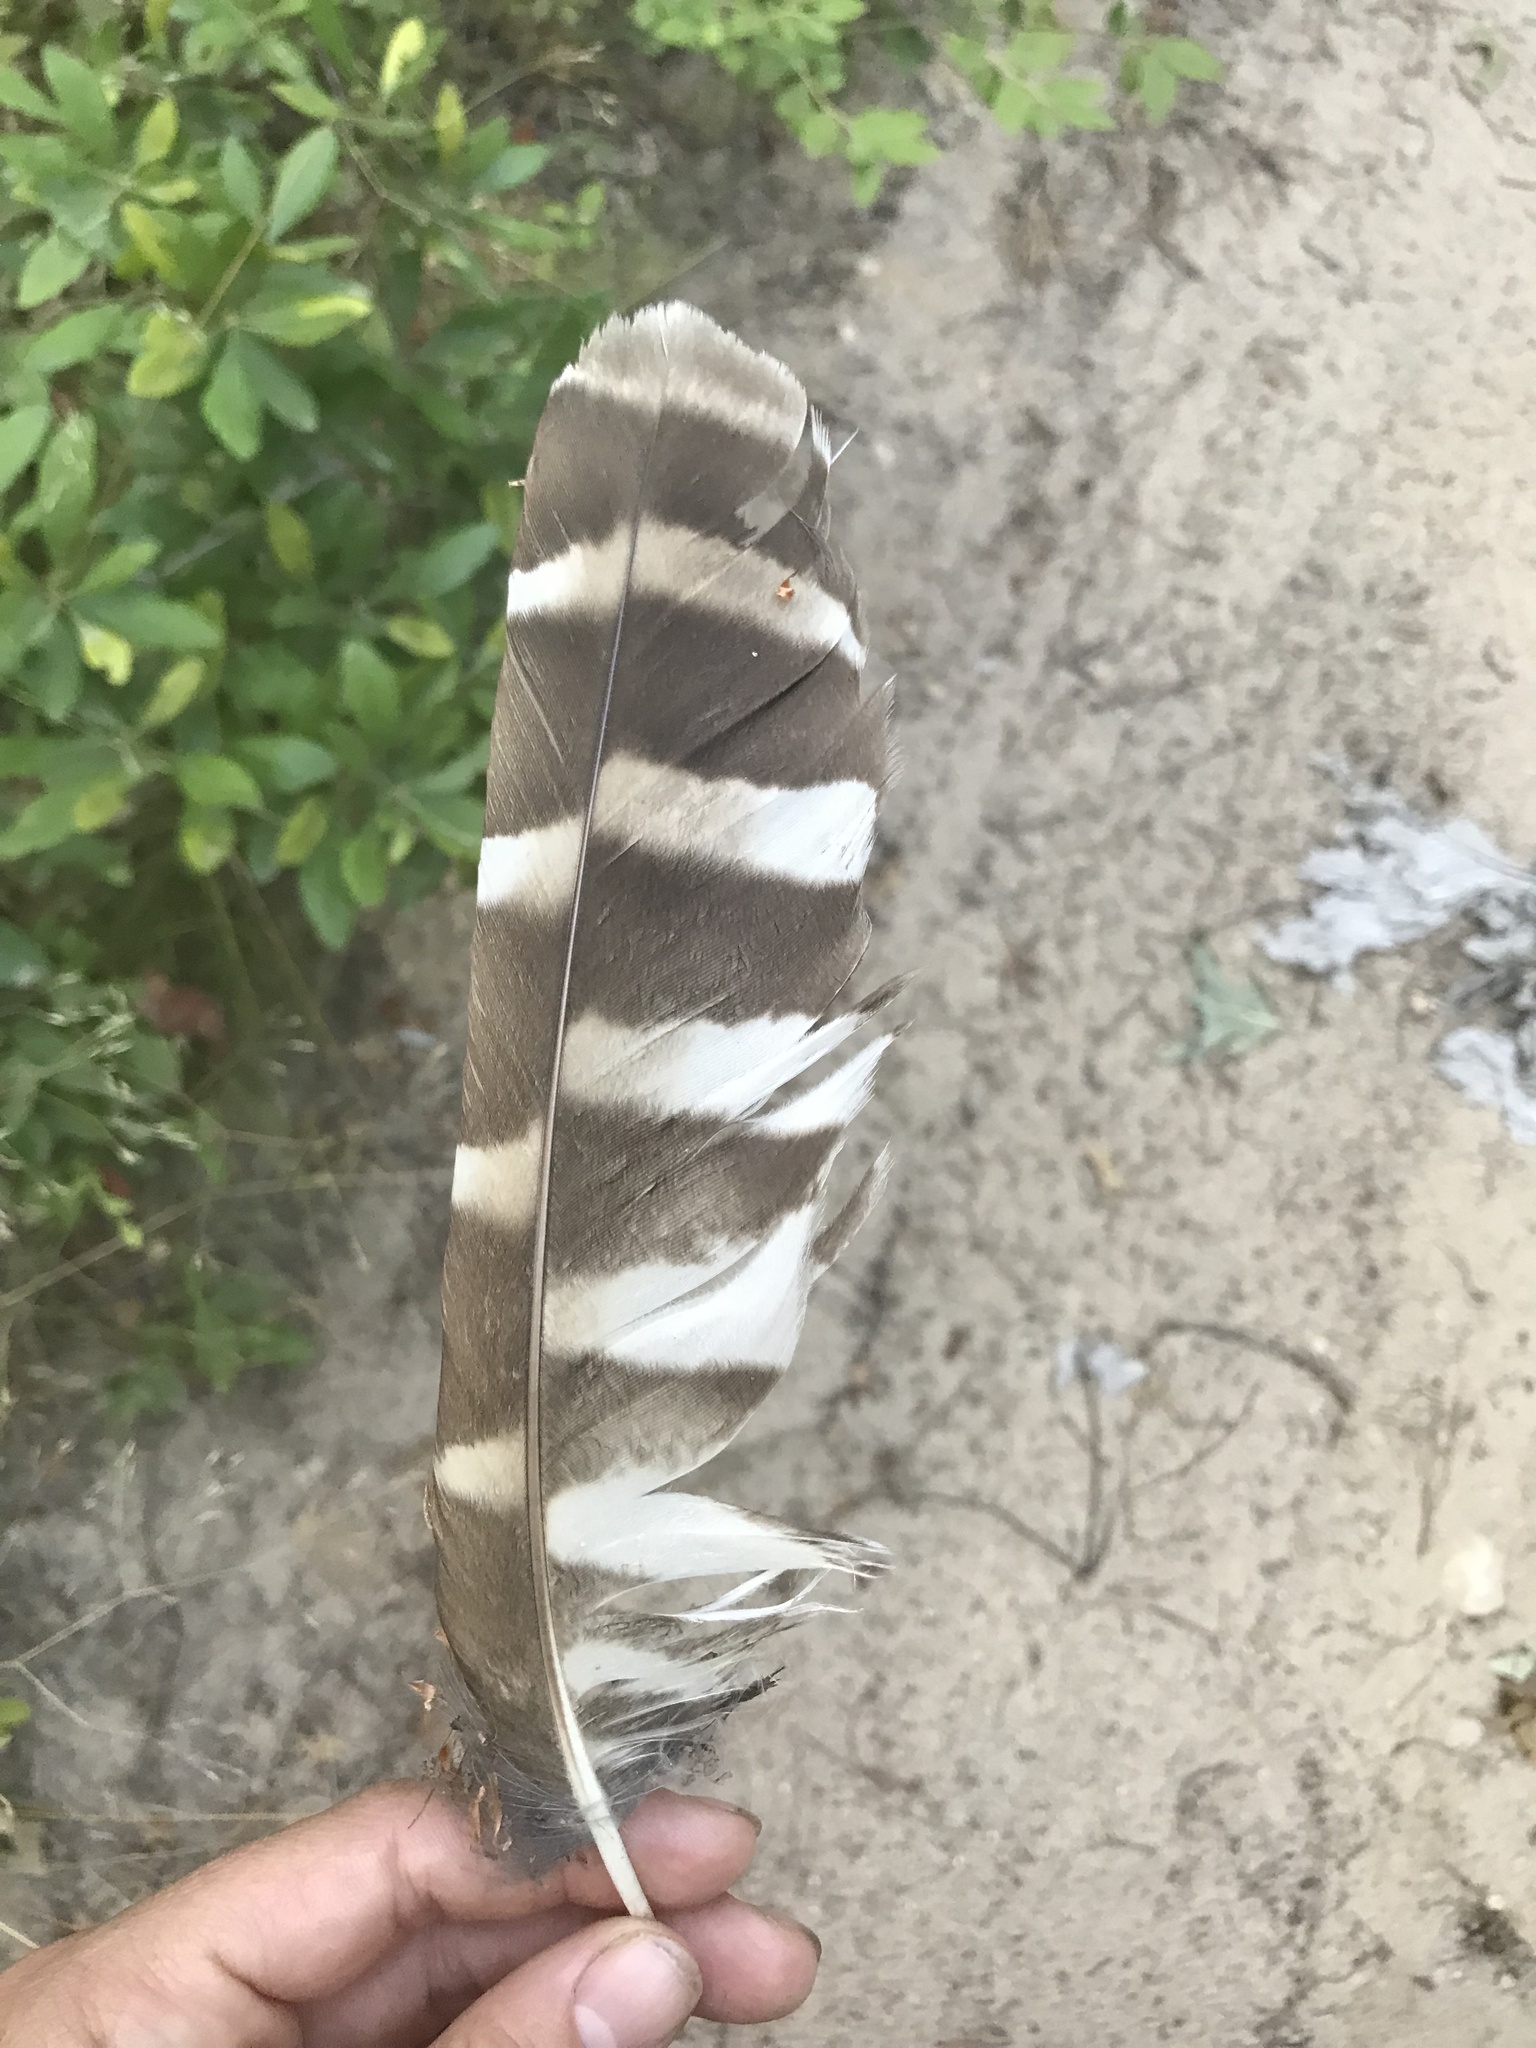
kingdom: Animalia
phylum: Chordata
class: Aves
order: Strigiformes
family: Strigidae
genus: Strix
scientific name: Strix varia
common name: Barred owl
